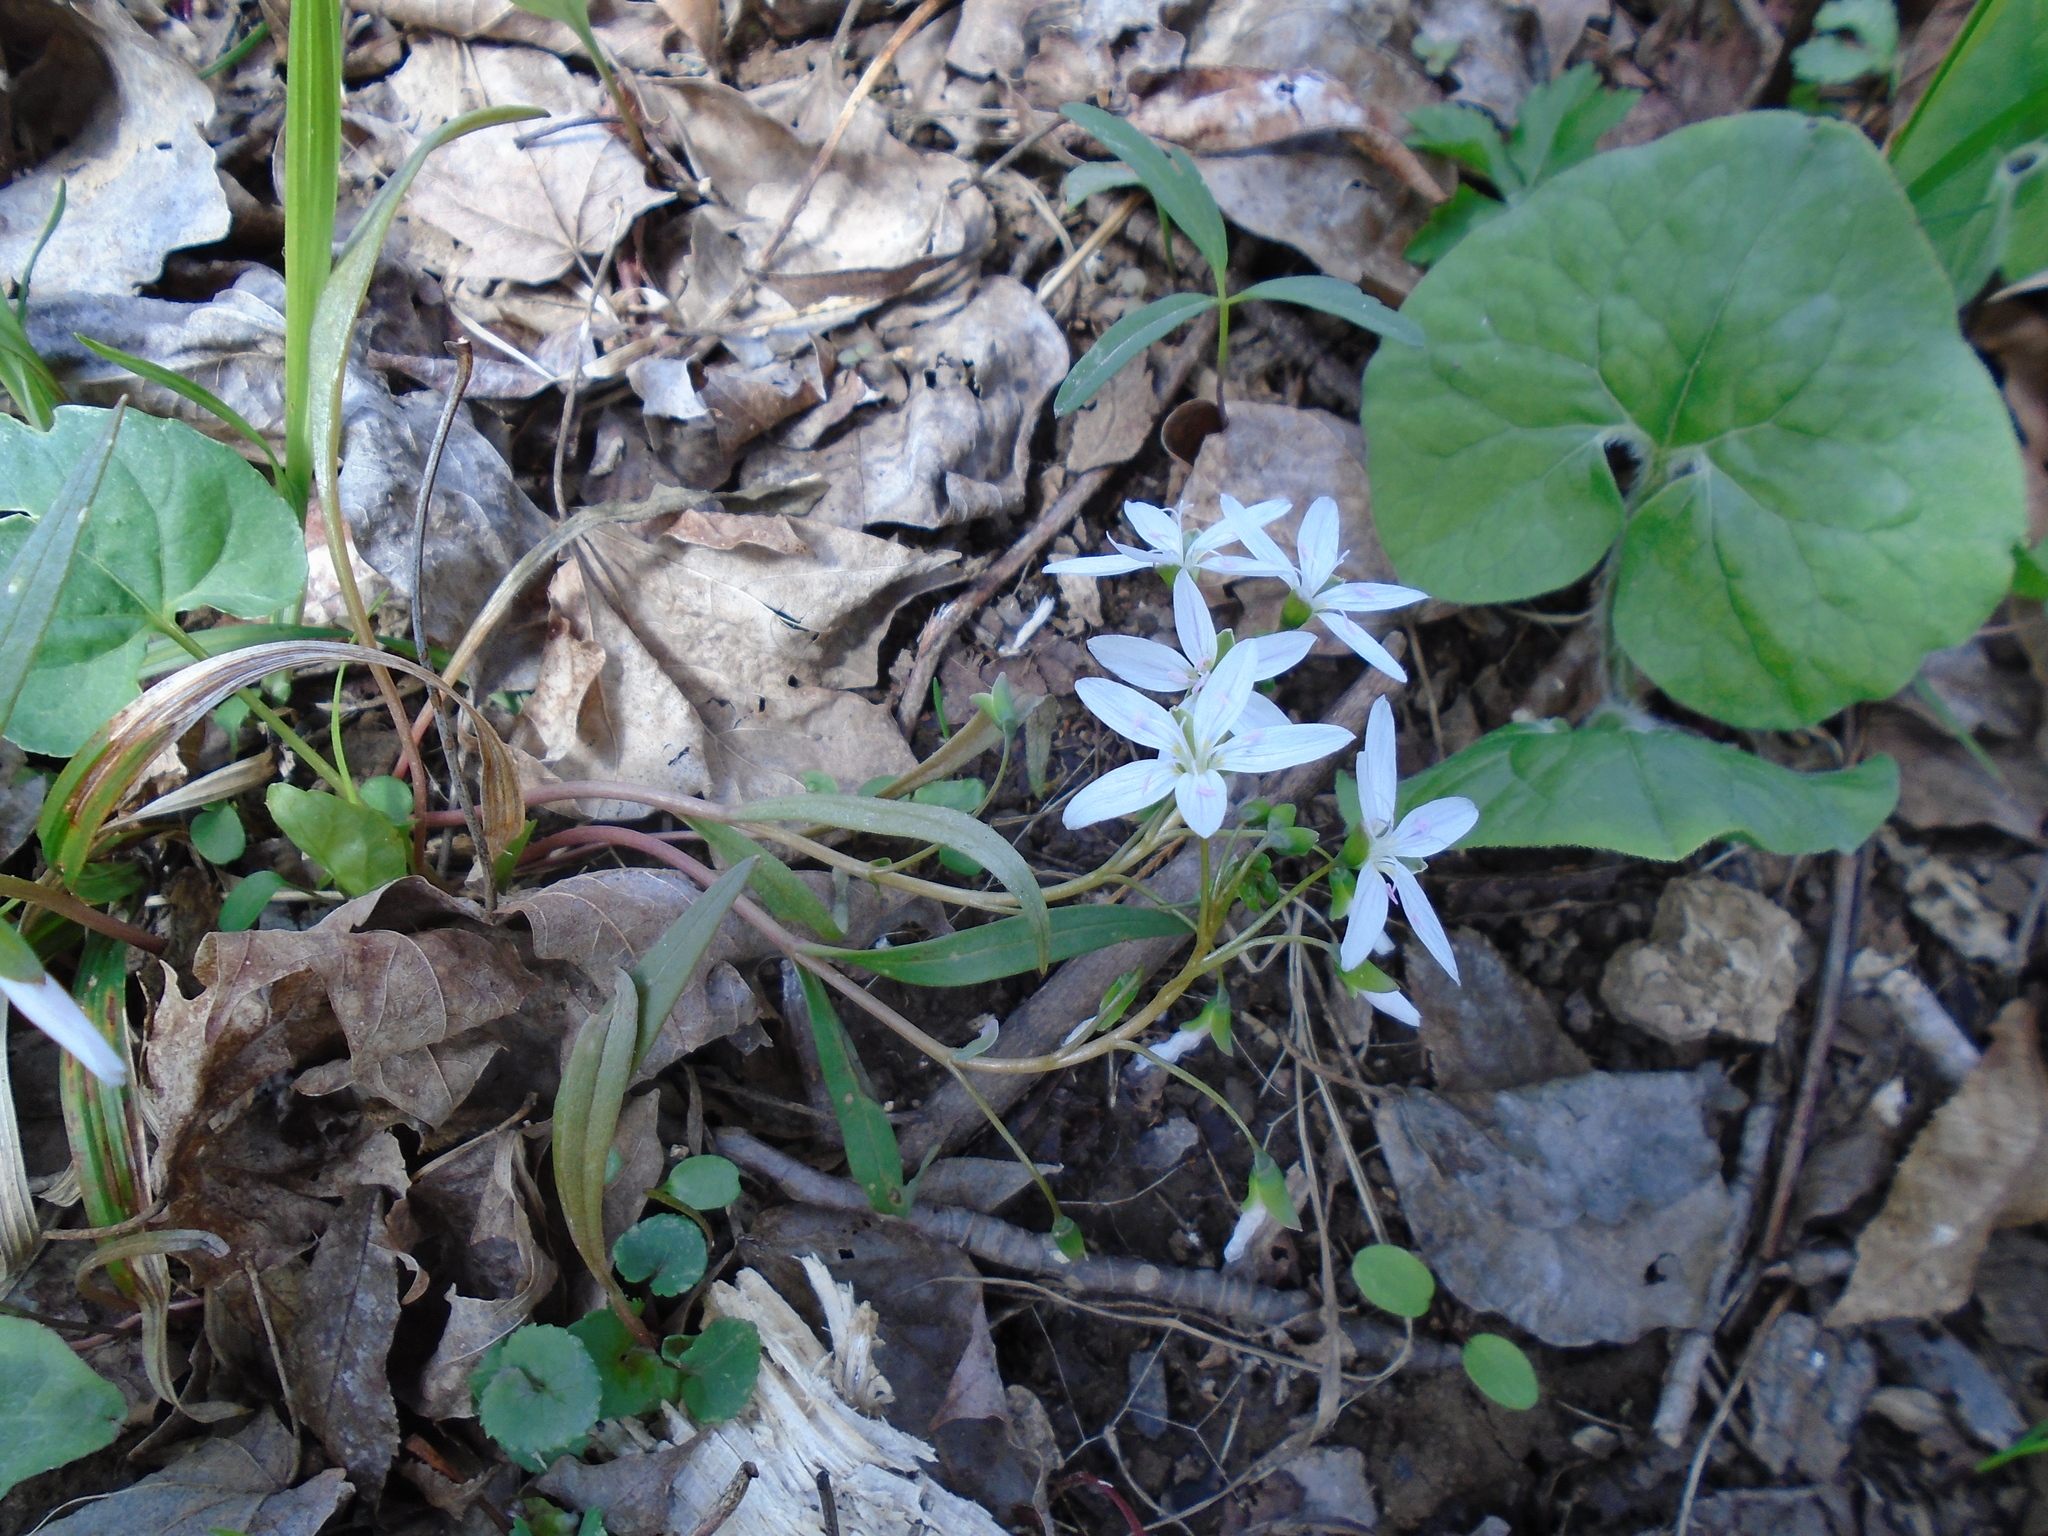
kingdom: Plantae
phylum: Tracheophyta
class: Magnoliopsida
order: Caryophyllales
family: Montiaceae
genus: Claytonia
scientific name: Claytonia virginica
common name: Virginia springbeauty
